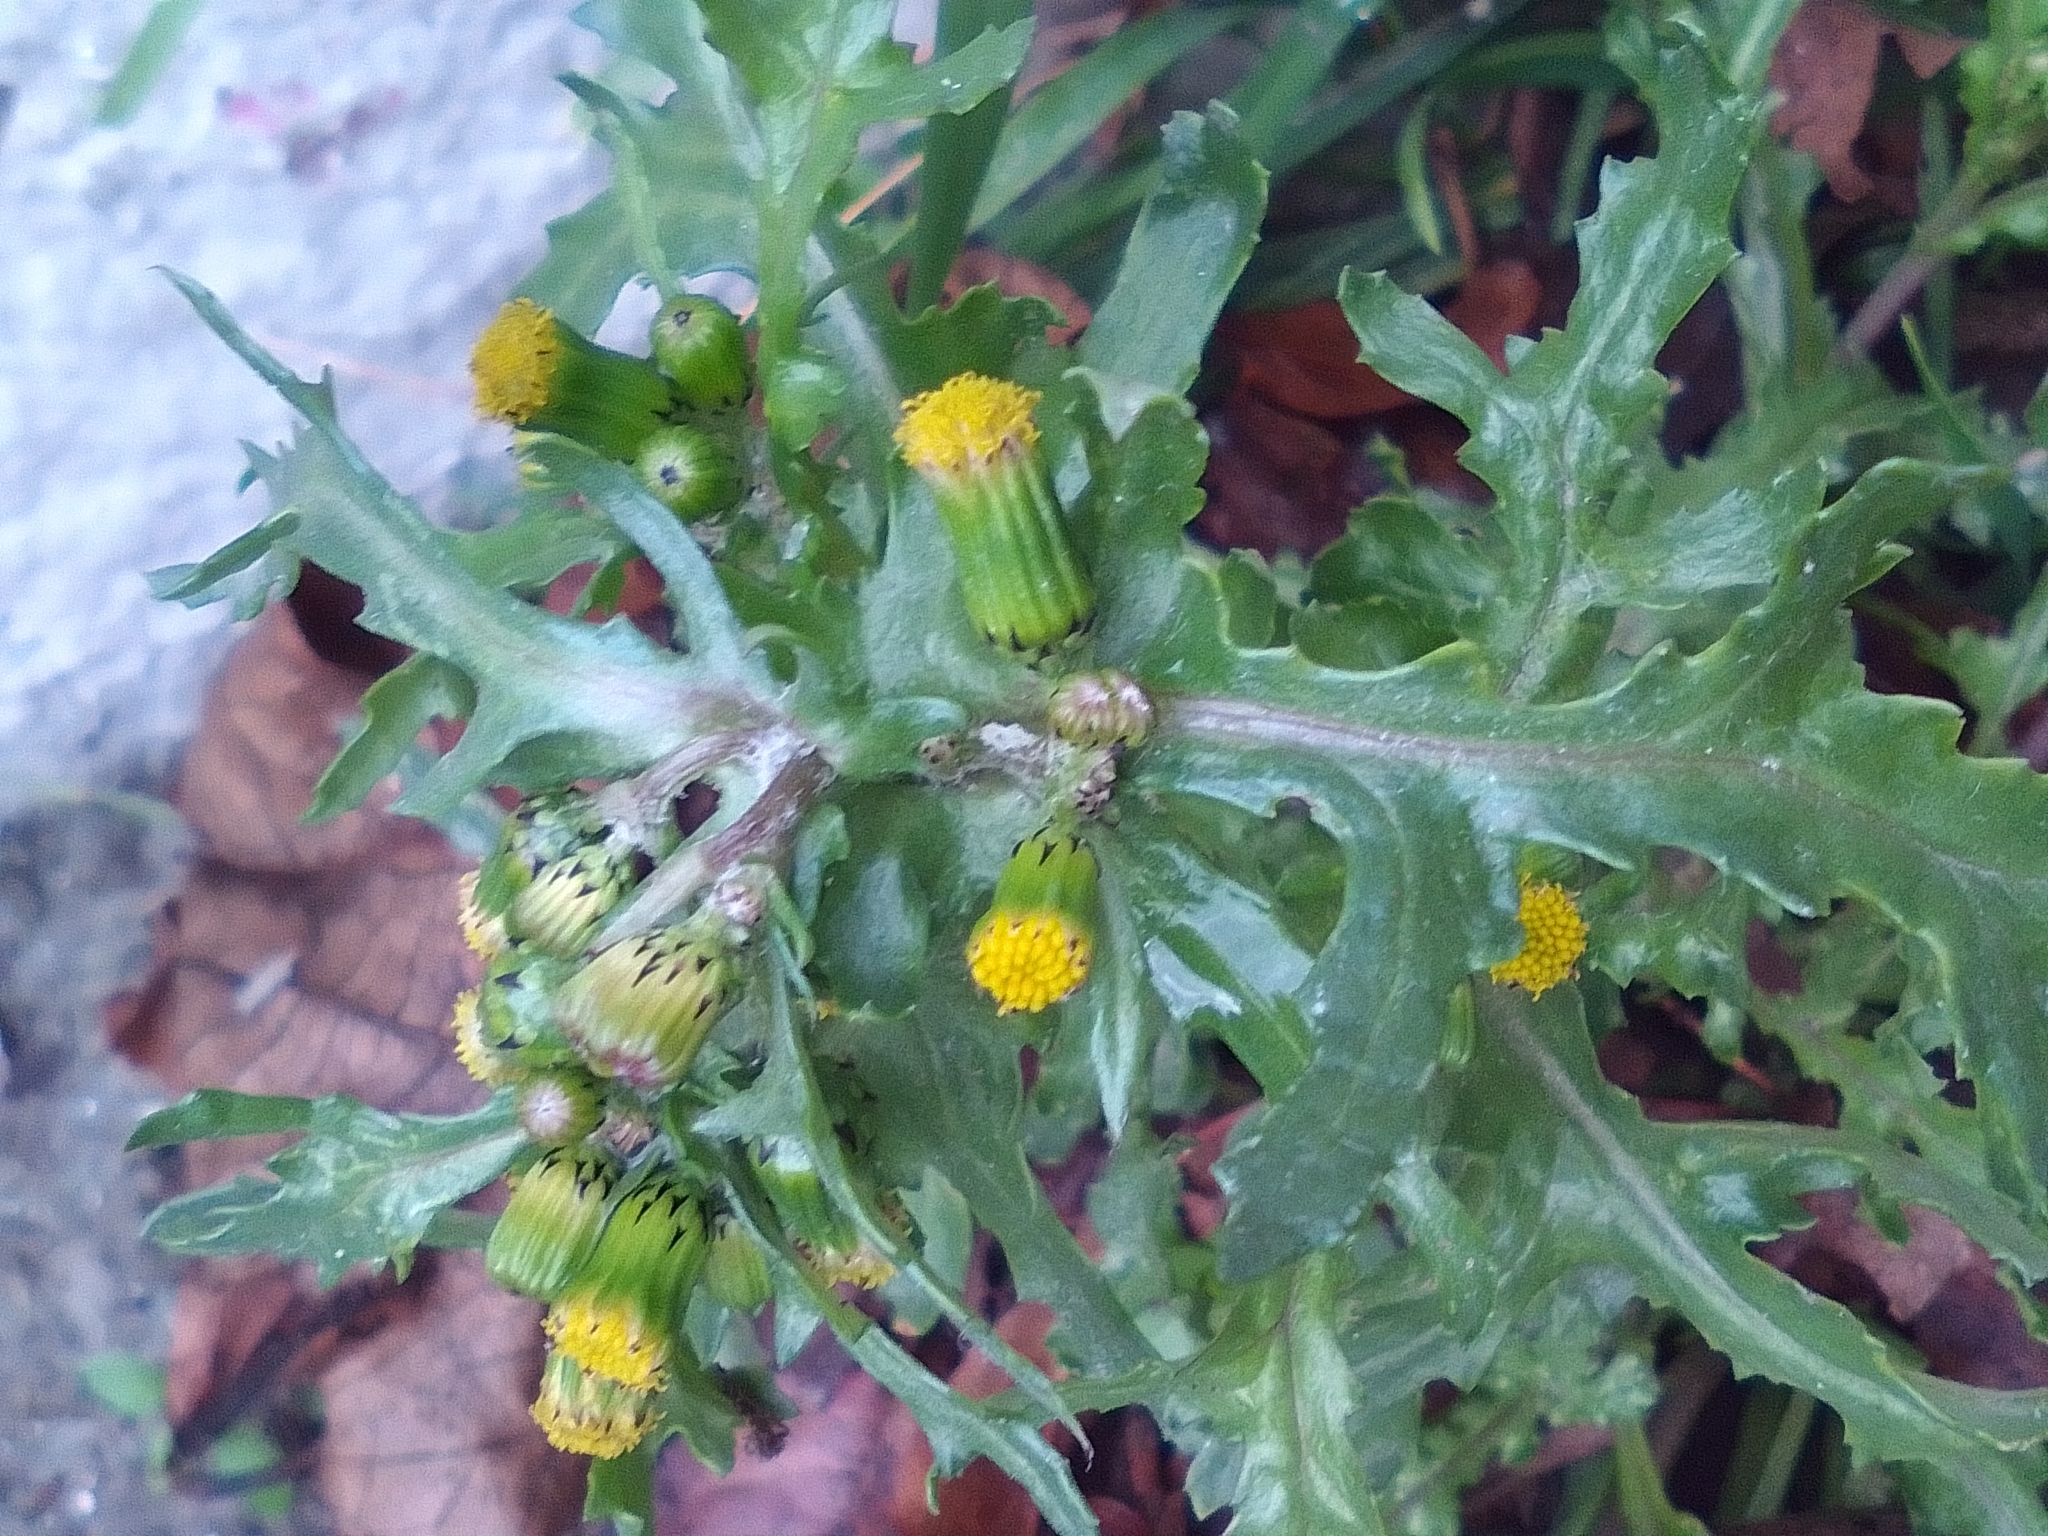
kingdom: Plantae
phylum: Tracheophyta
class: Magnoliopsida
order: Asterales
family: Asteraceae
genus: Senecio
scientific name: Senecio vulgaris
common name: Old-man-in-the-spring
